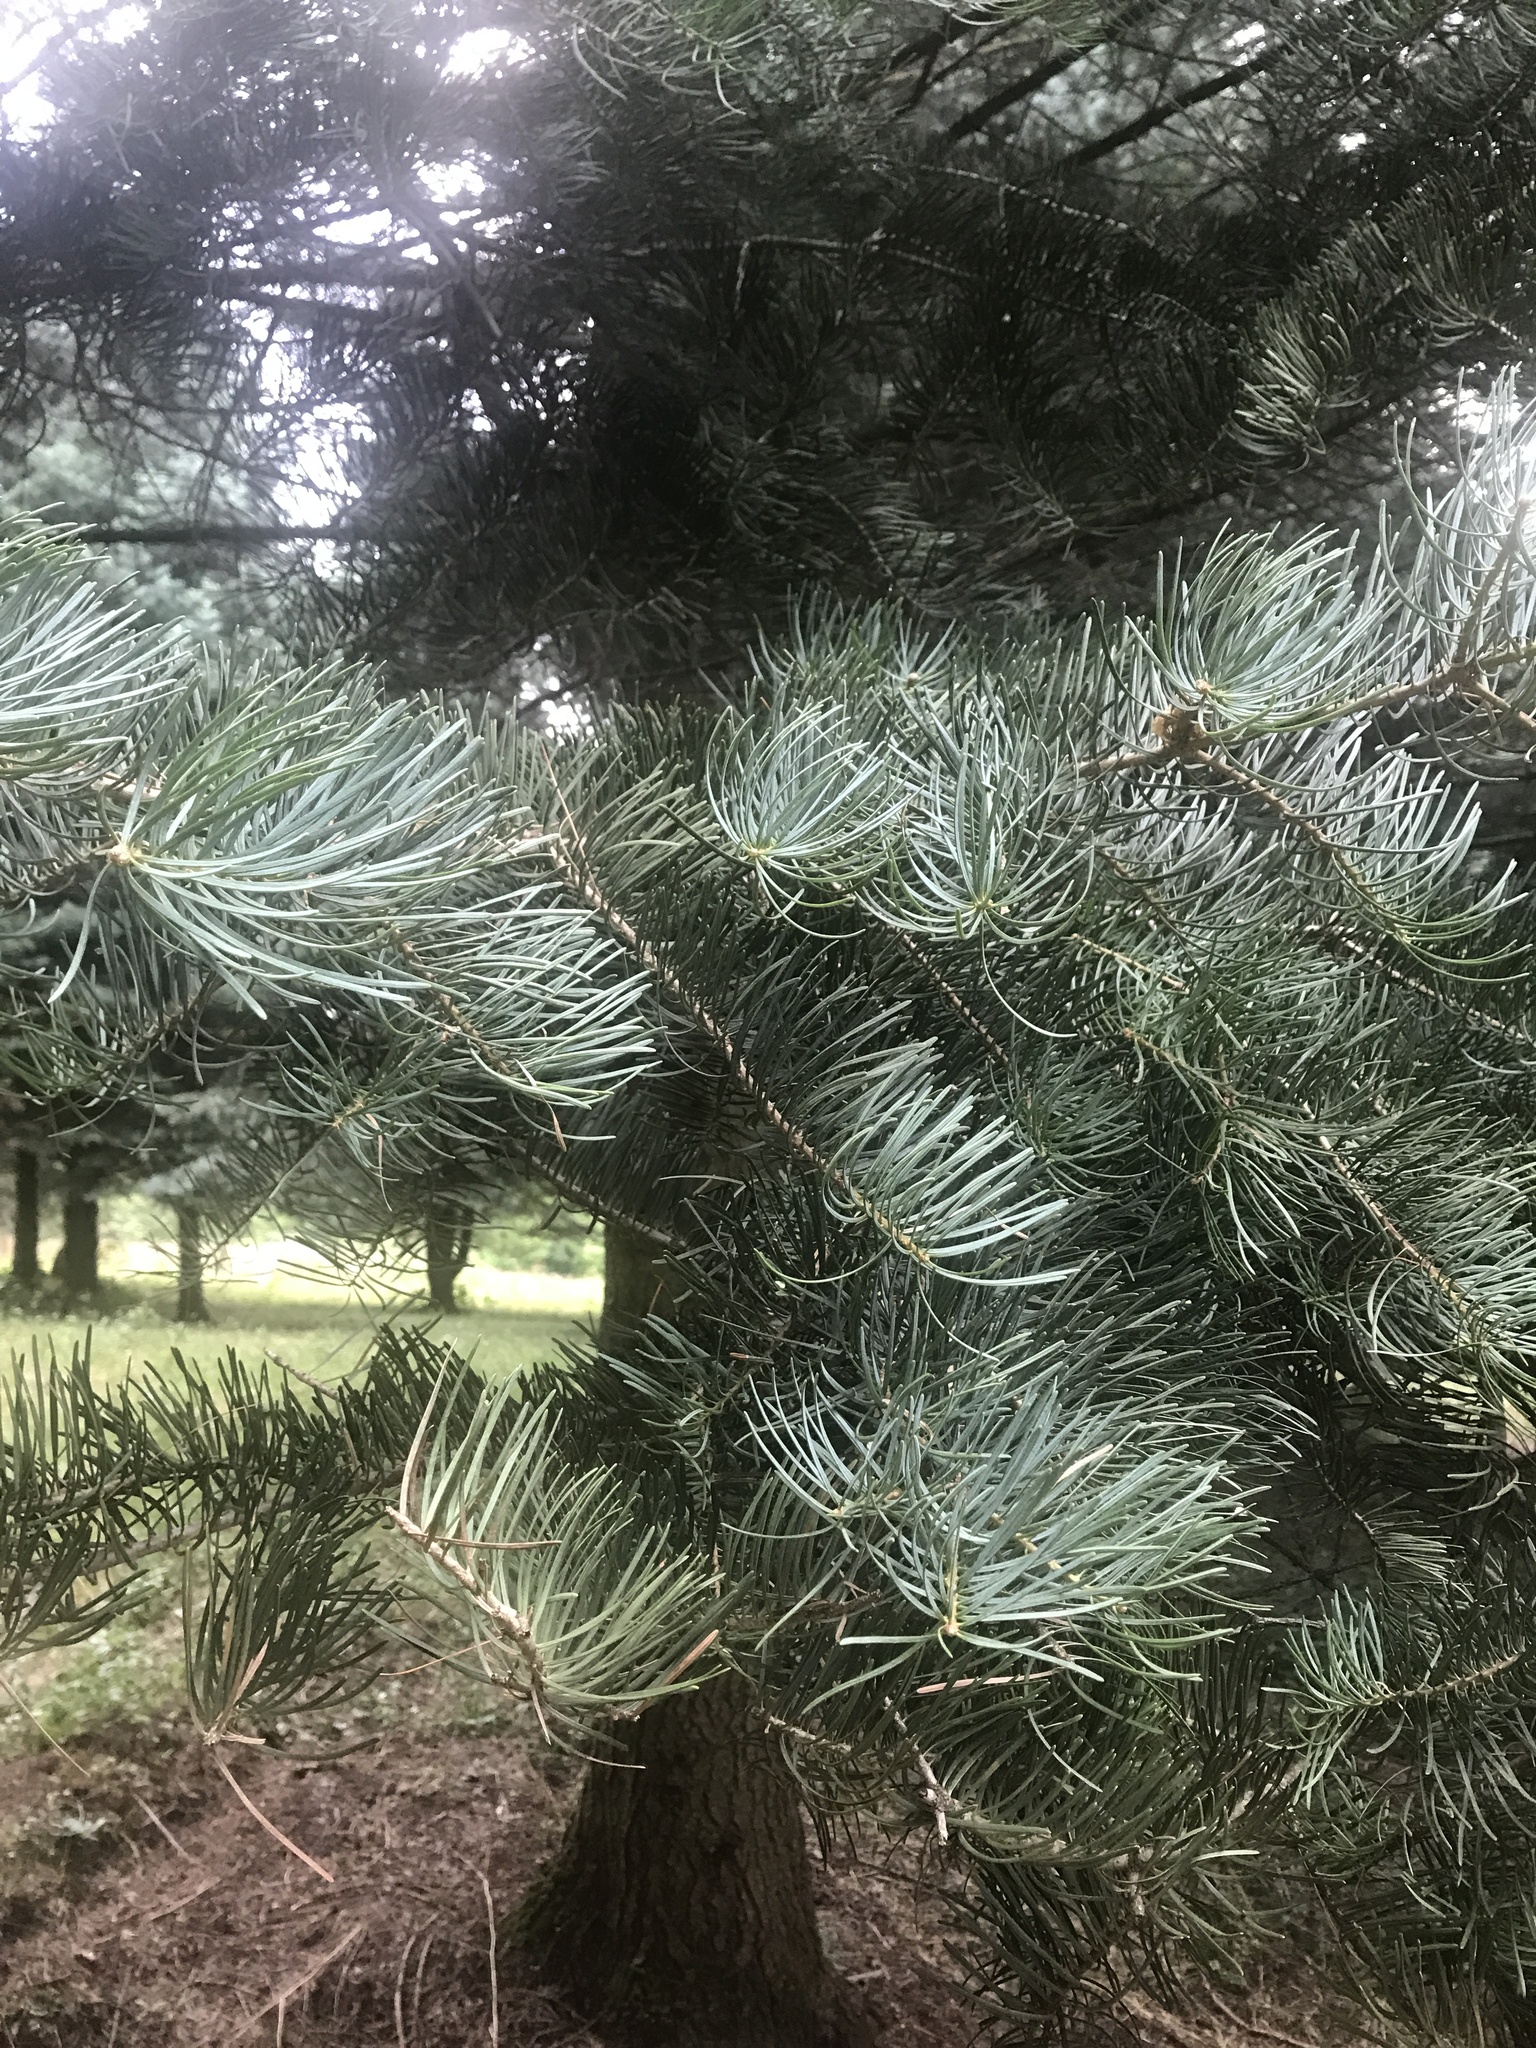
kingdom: Plantae
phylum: Tracheophyta
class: Pinopsida
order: Pinales
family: Pinaceae
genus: Abies
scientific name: Abies concolor
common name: Colorado fir
